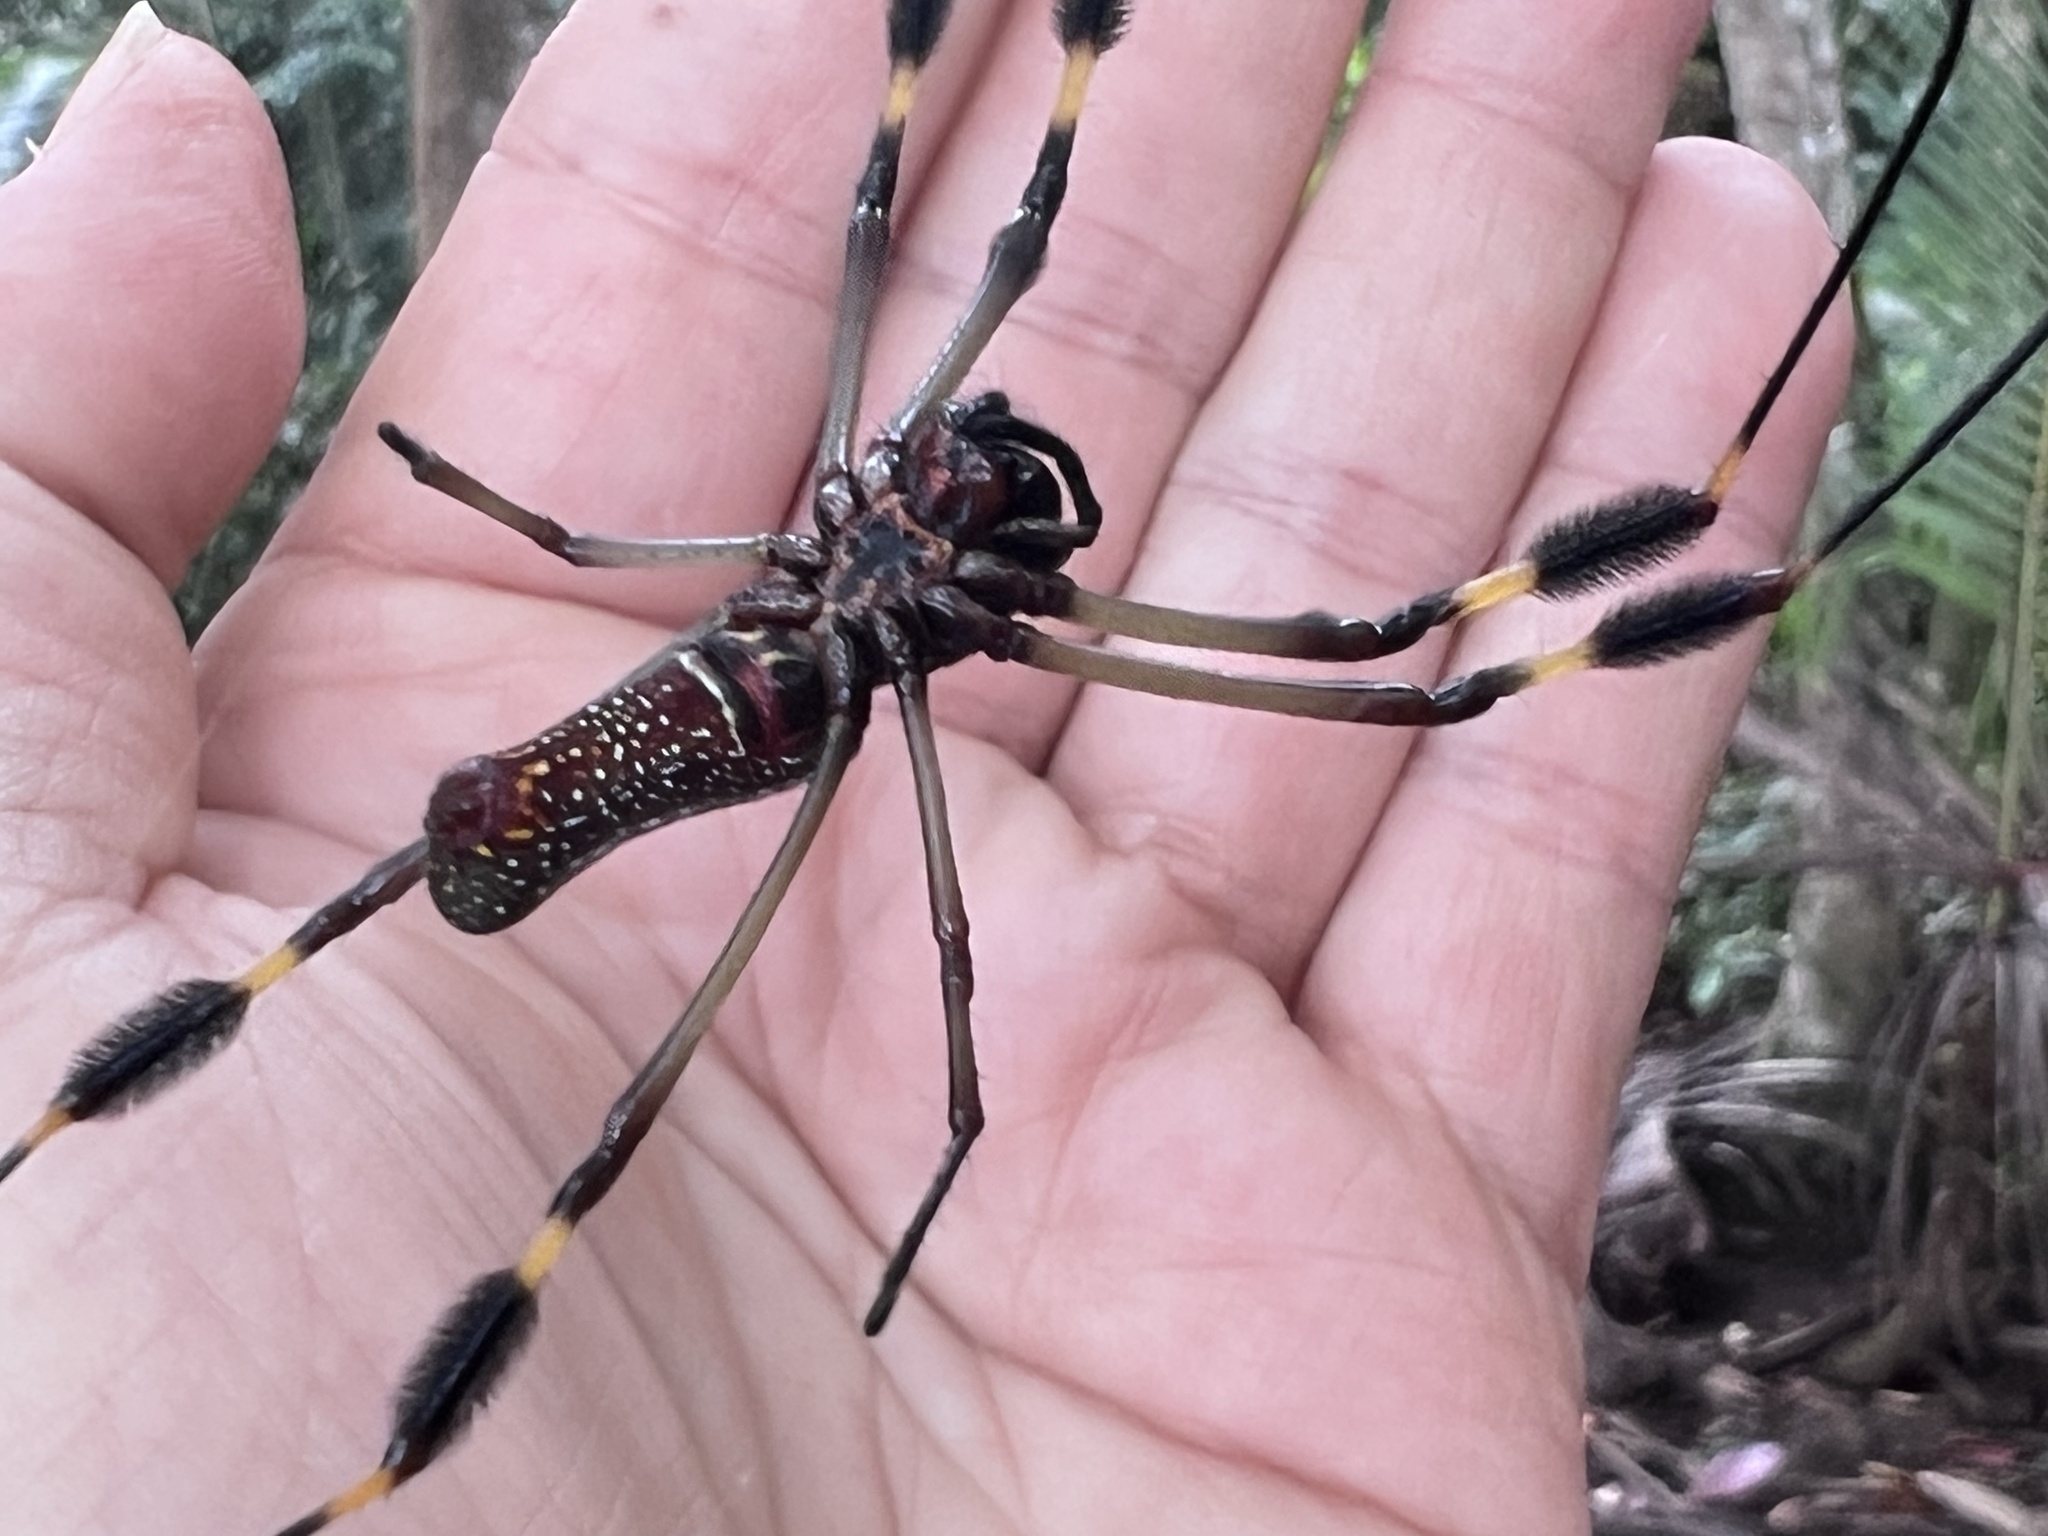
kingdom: Animalia
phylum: Arthropoda
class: Arachnida
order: Araneae
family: Araneidae
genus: Trichonephila
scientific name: Trichonephila clavipes
